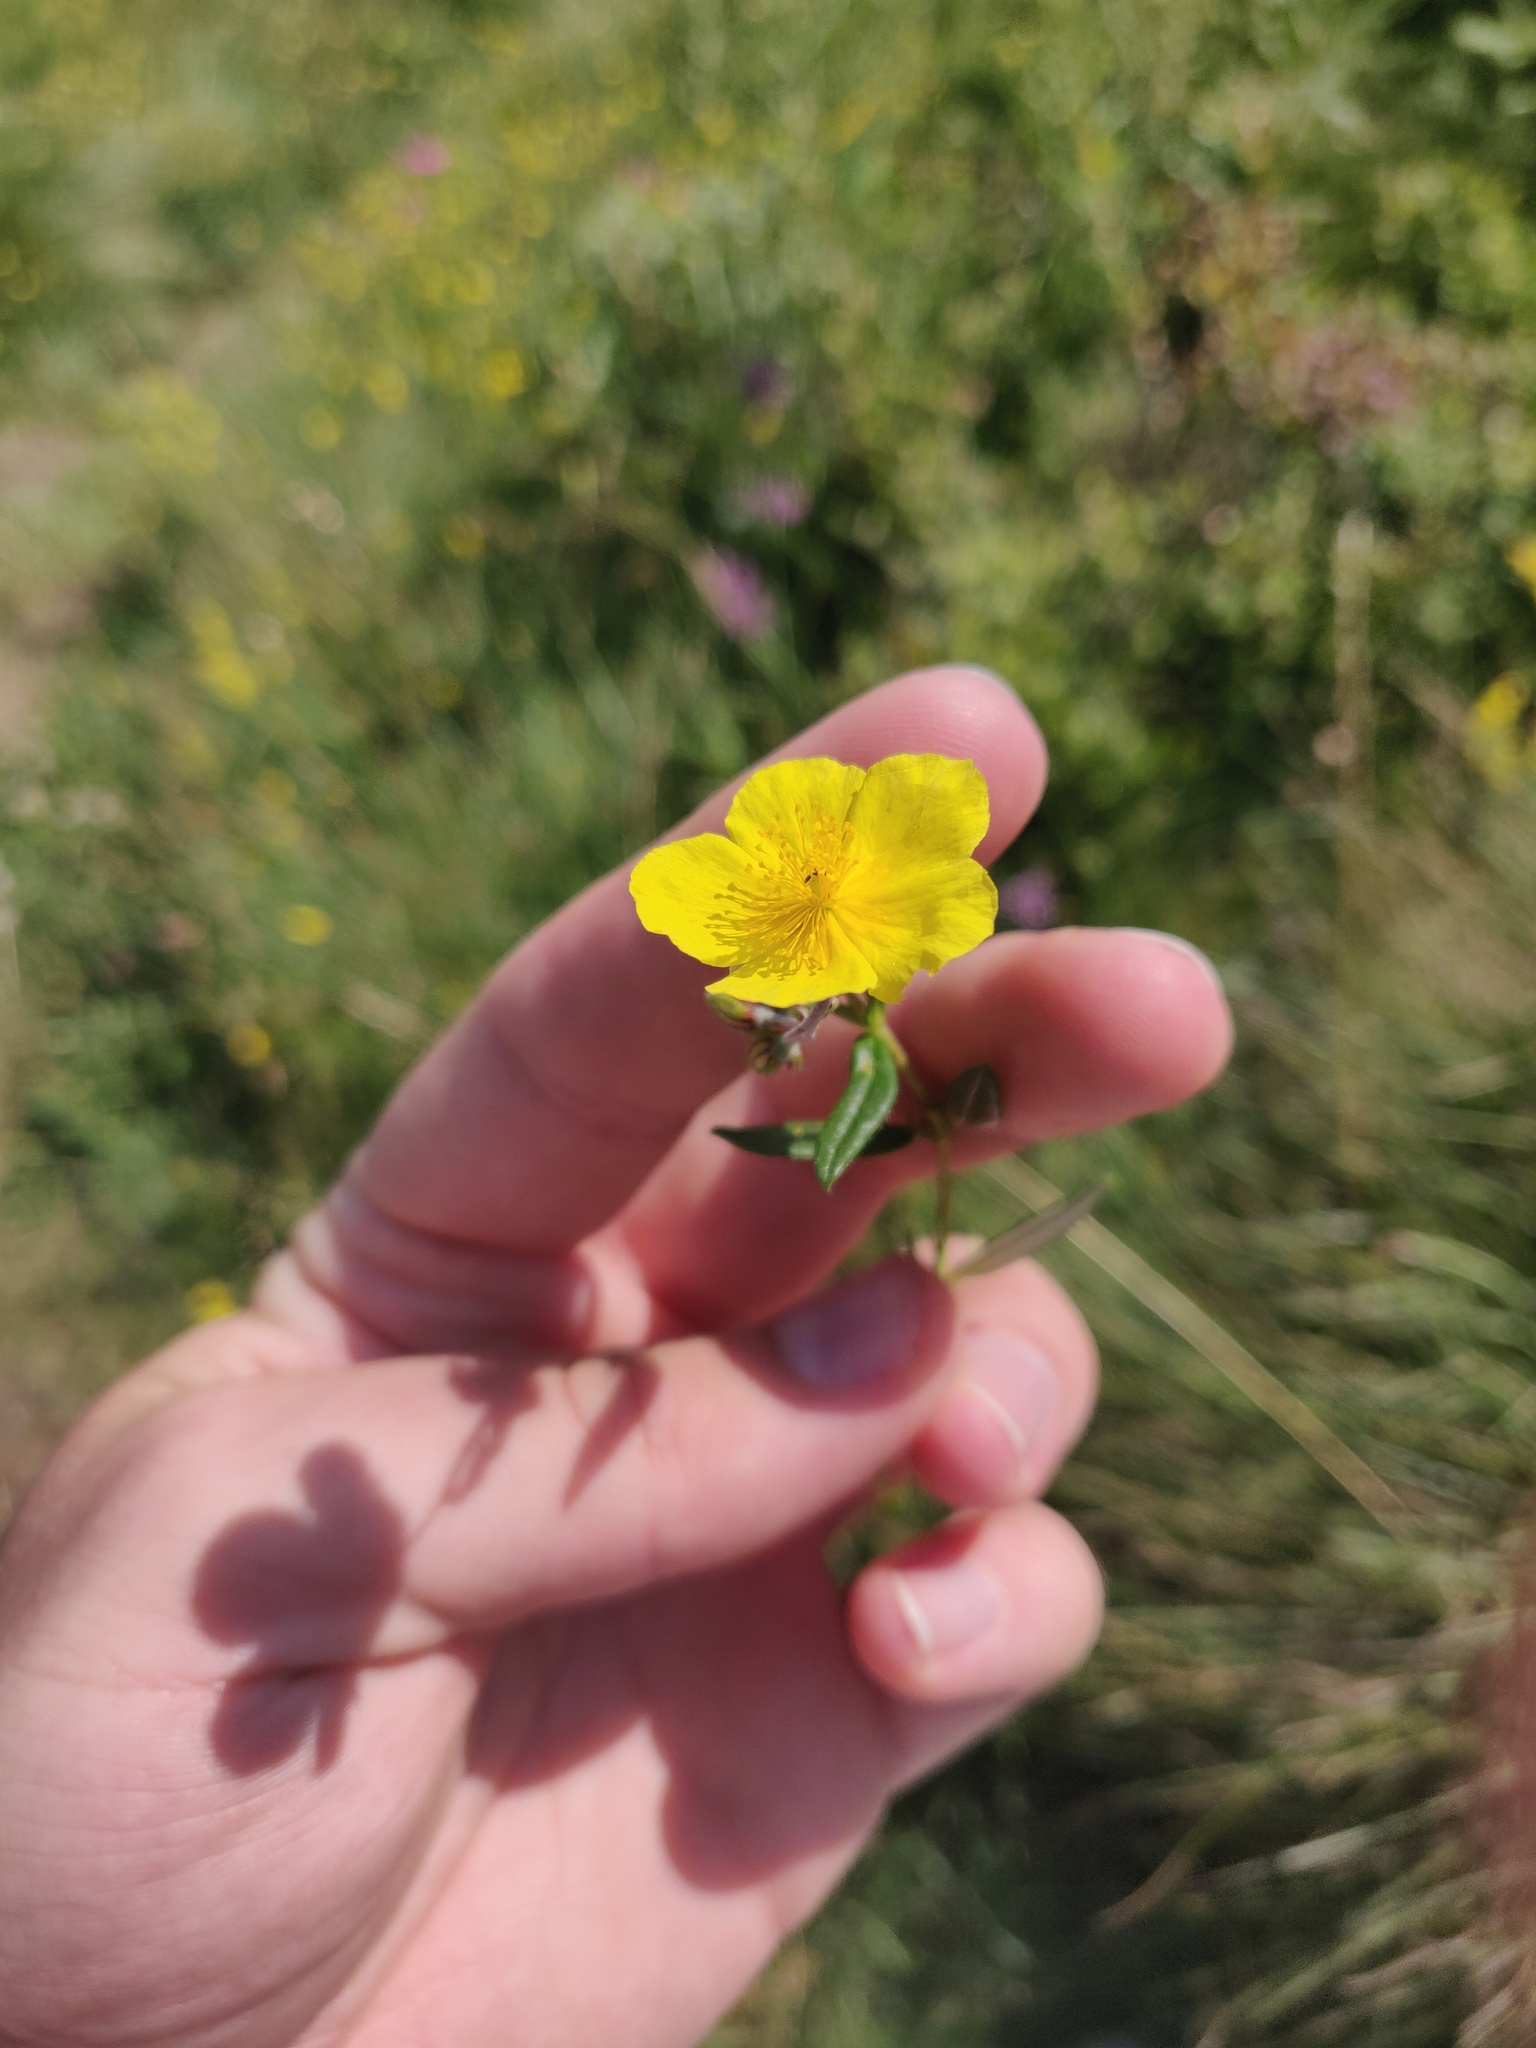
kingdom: Plantae
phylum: Tracheophyta
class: Magnoliopsida
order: Malvales
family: Cistaceae
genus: Helianthemum
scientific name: Helianthemum nummularium
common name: Common rock-rose
